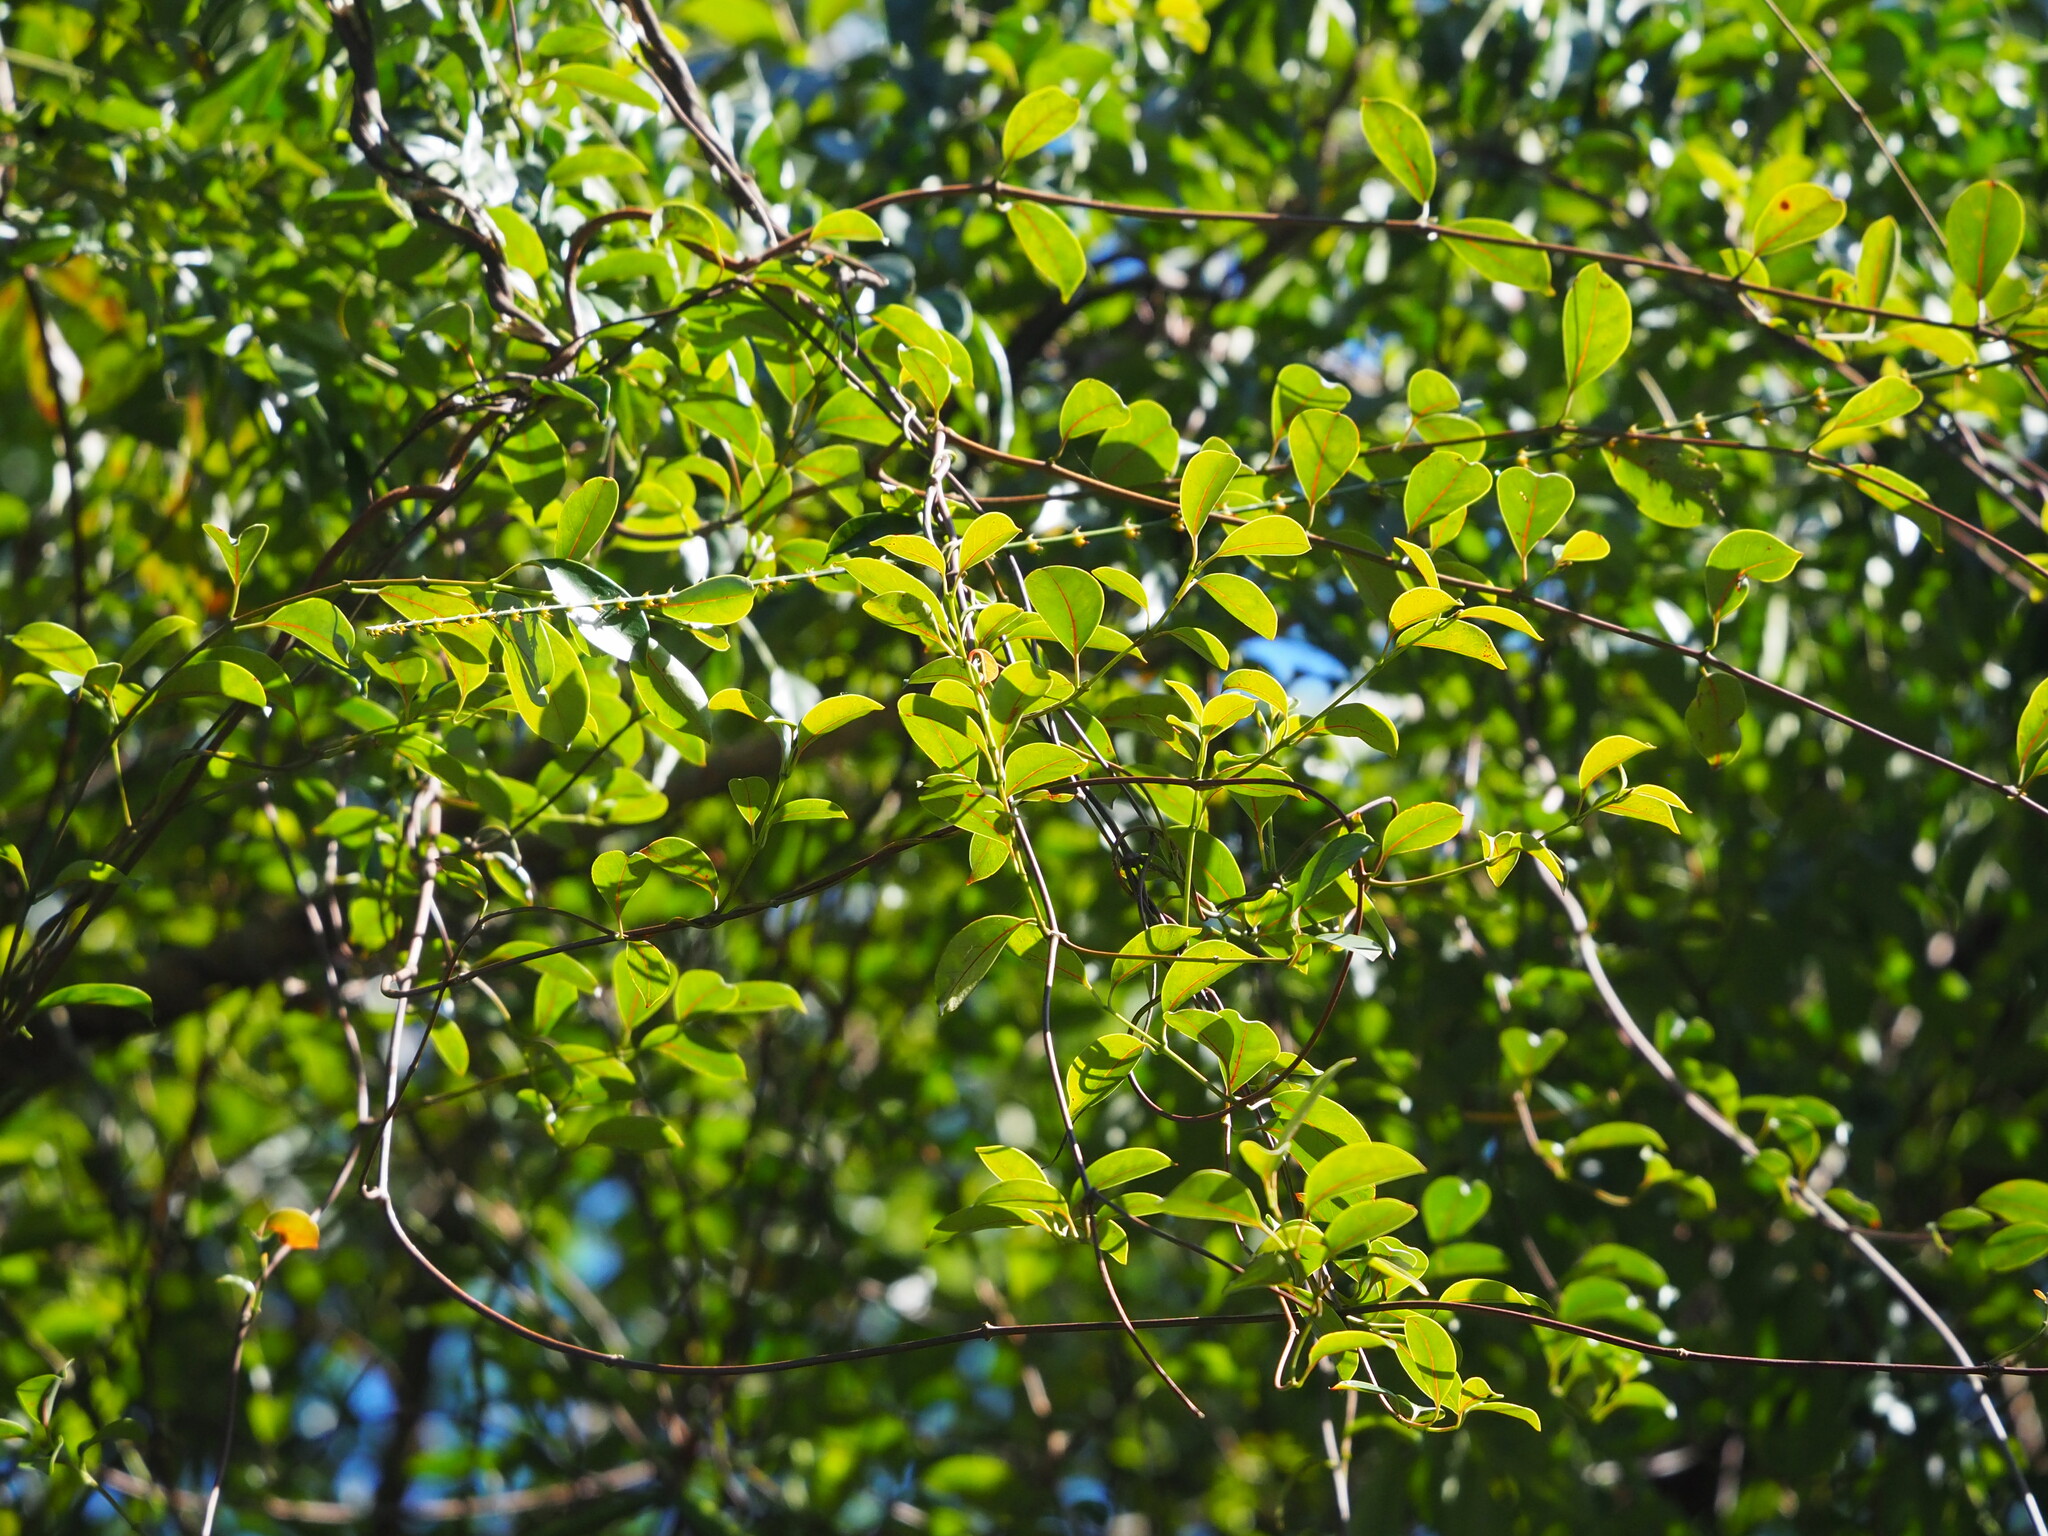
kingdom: Plantae
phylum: Tracheophyta
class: Magnoliopsida
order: Gentianales
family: Apocynaceae
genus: Urceola
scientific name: Urceola rosea
